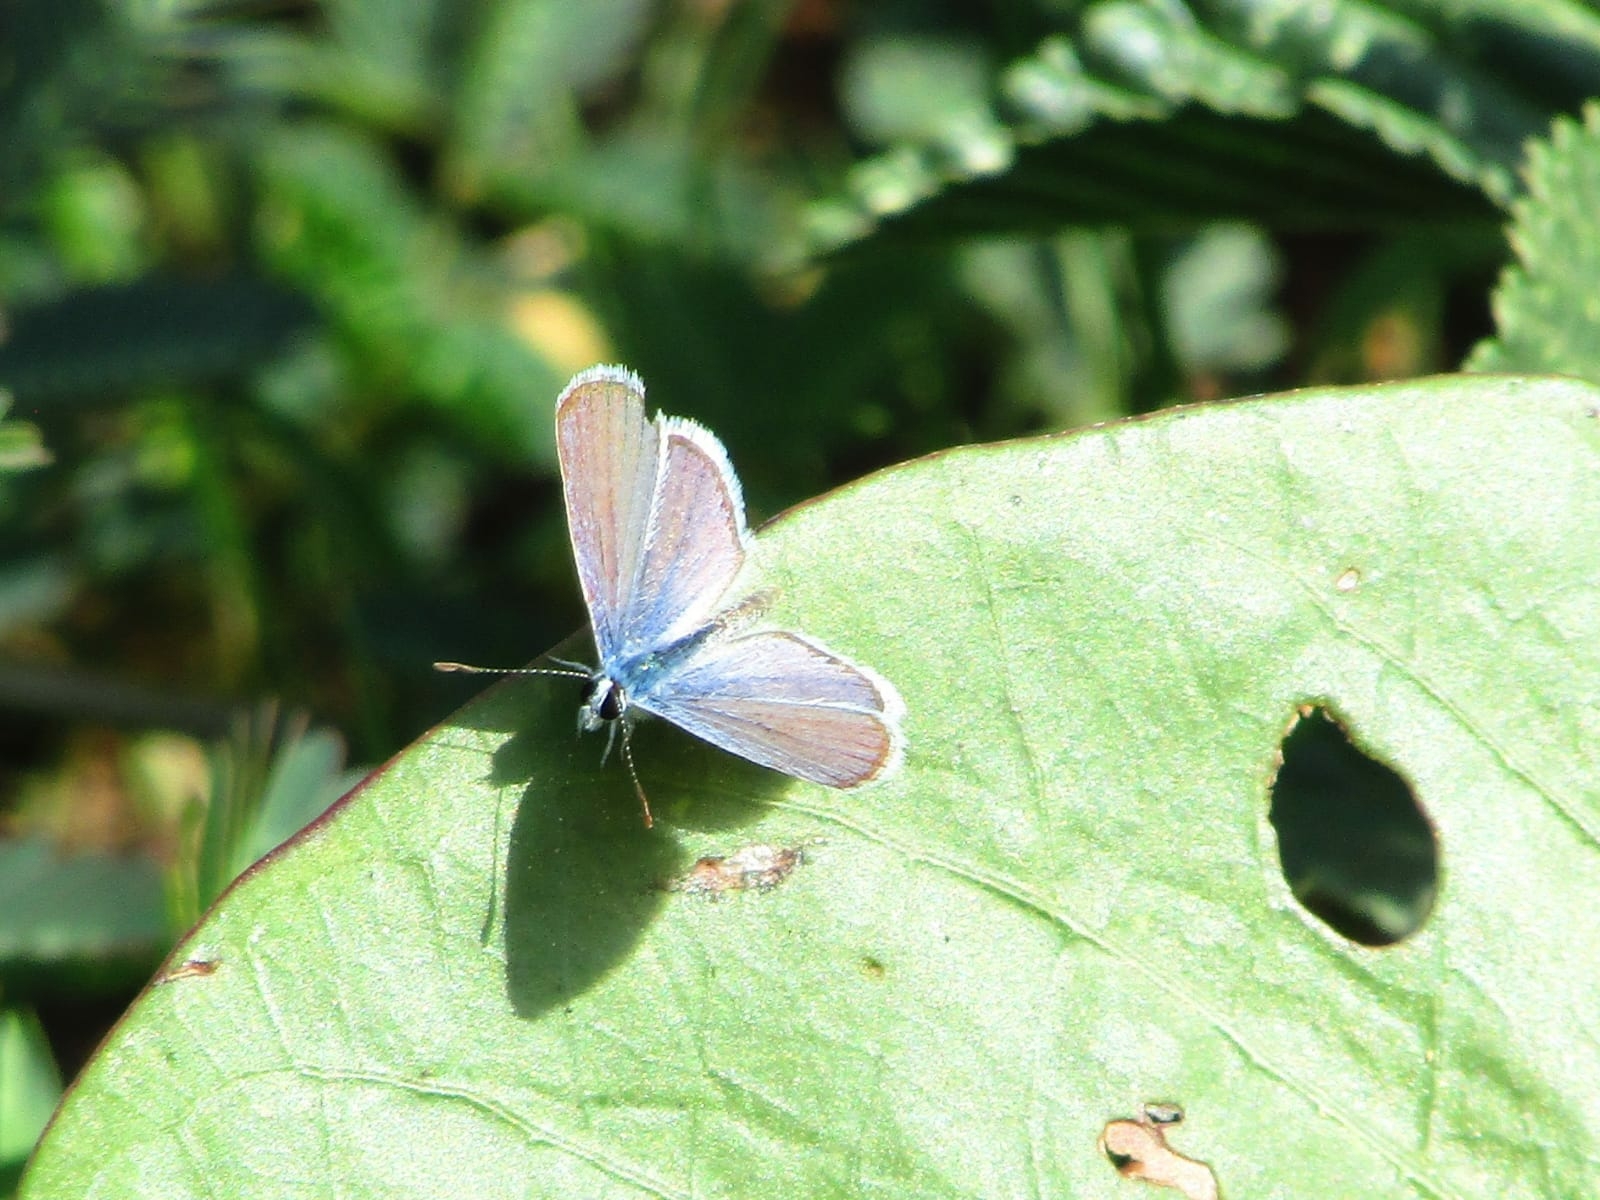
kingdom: Animalia
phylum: Arthropoda
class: Insecta
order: Lepidoptera
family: Lycaenidae
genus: Hemiargus
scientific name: Hemiargus hanno
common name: Common blue
